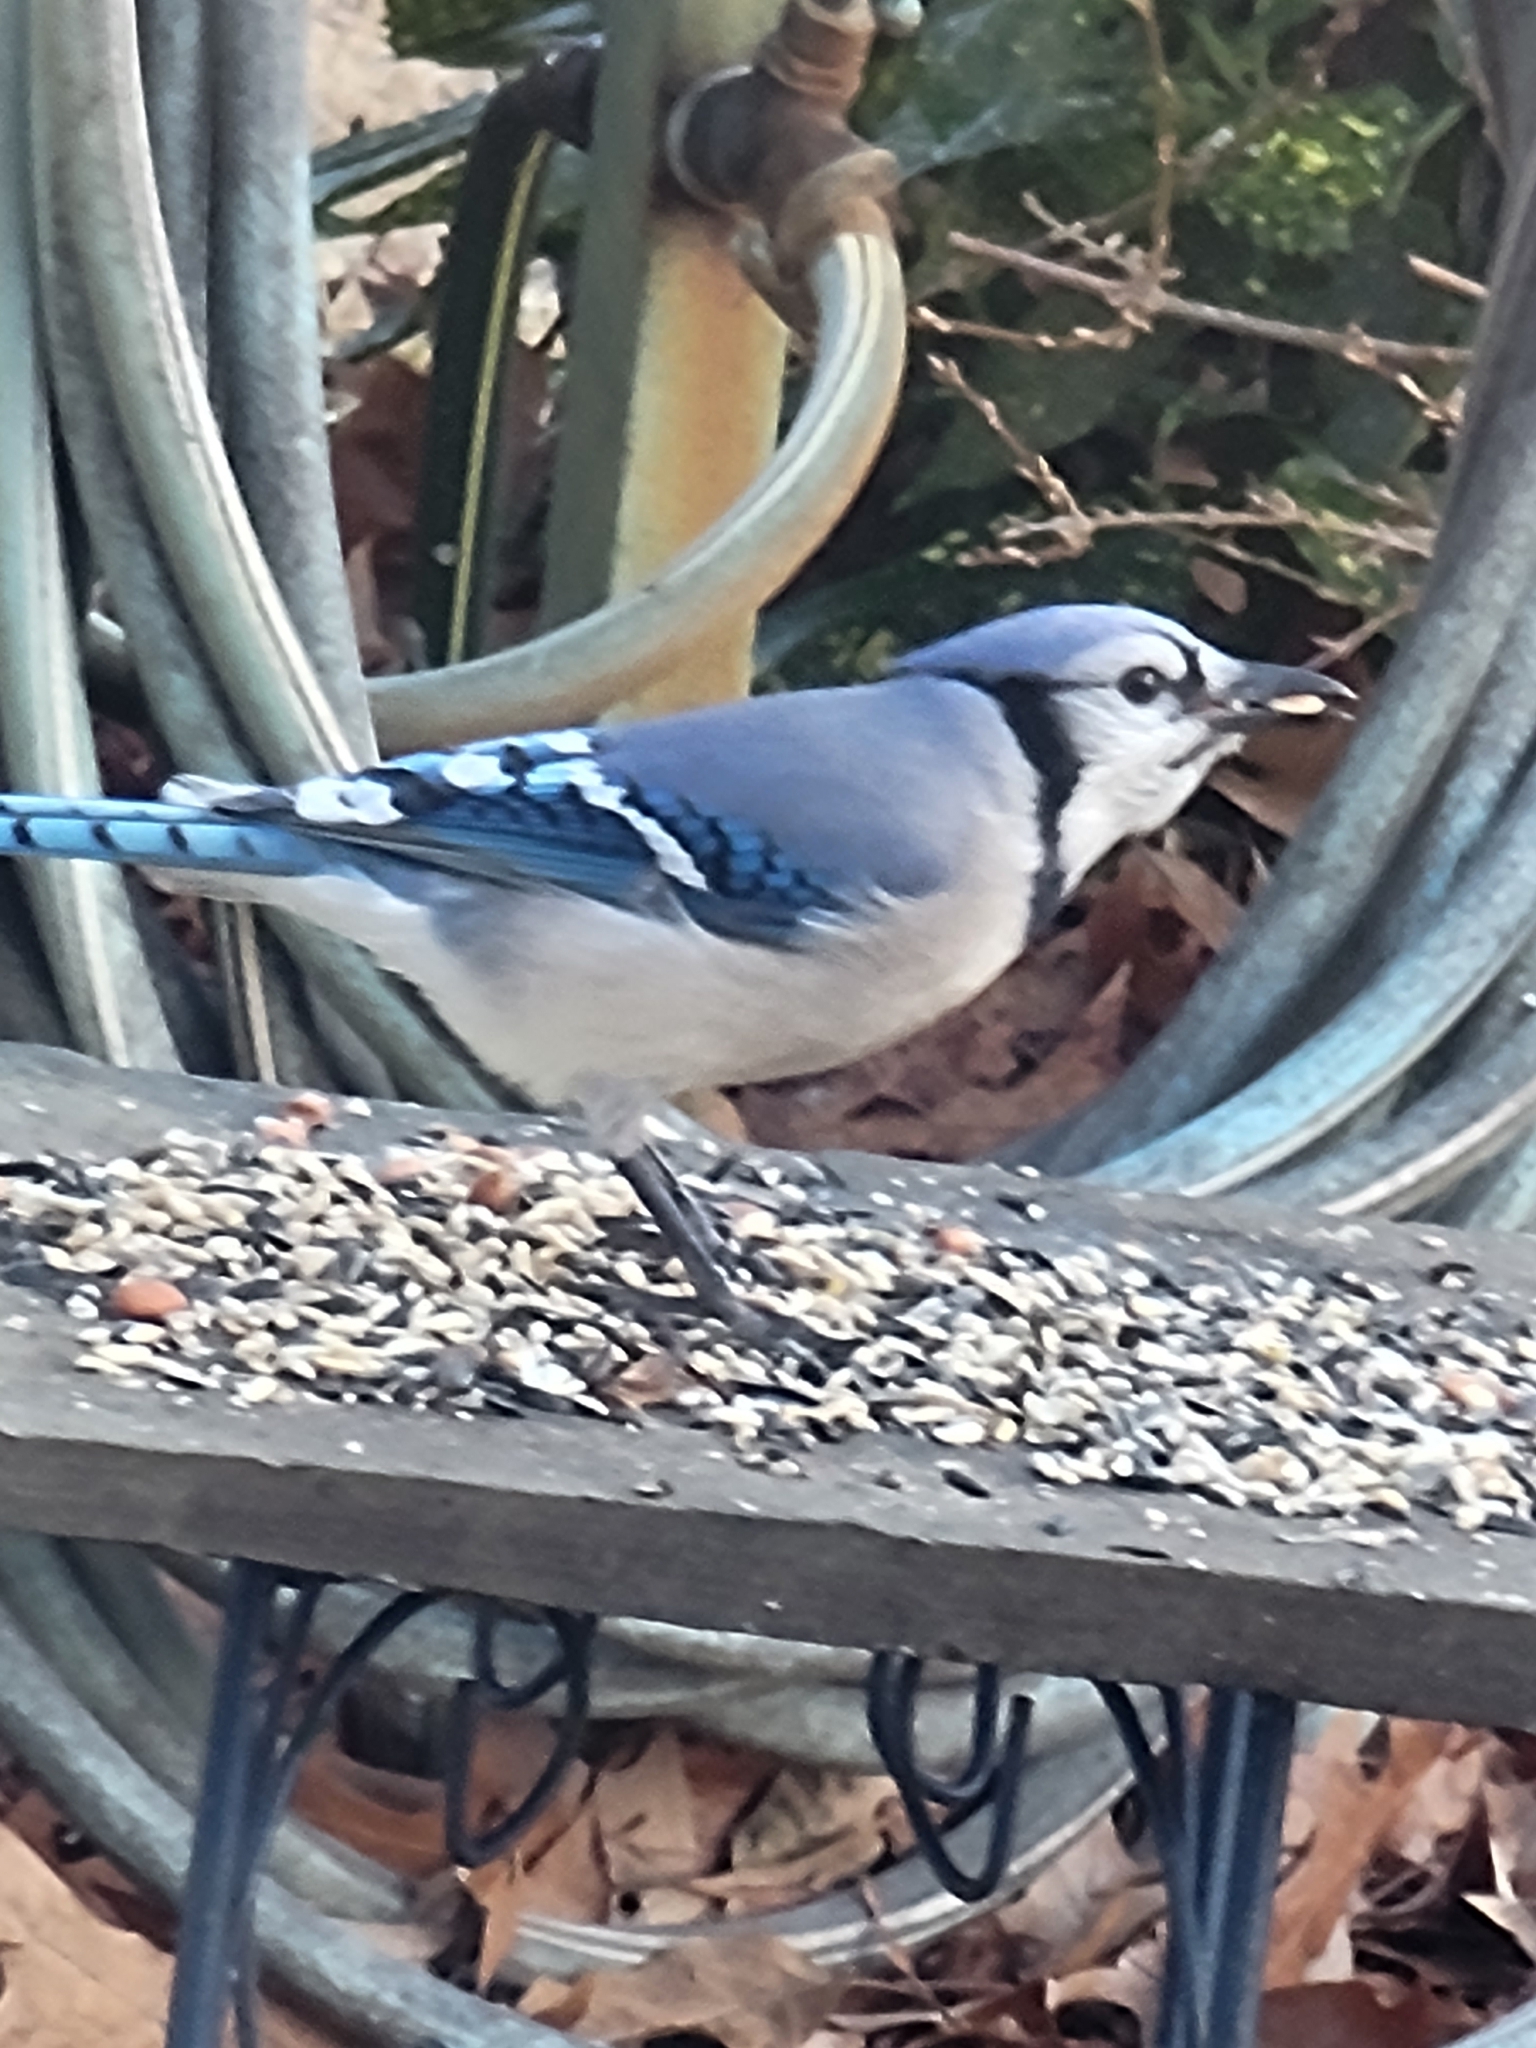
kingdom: Animalia
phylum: Chordata
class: Aves
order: Passeriformes
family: Corvidae
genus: Cyanocitta
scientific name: Cyanocitta cristata
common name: Blue jay
